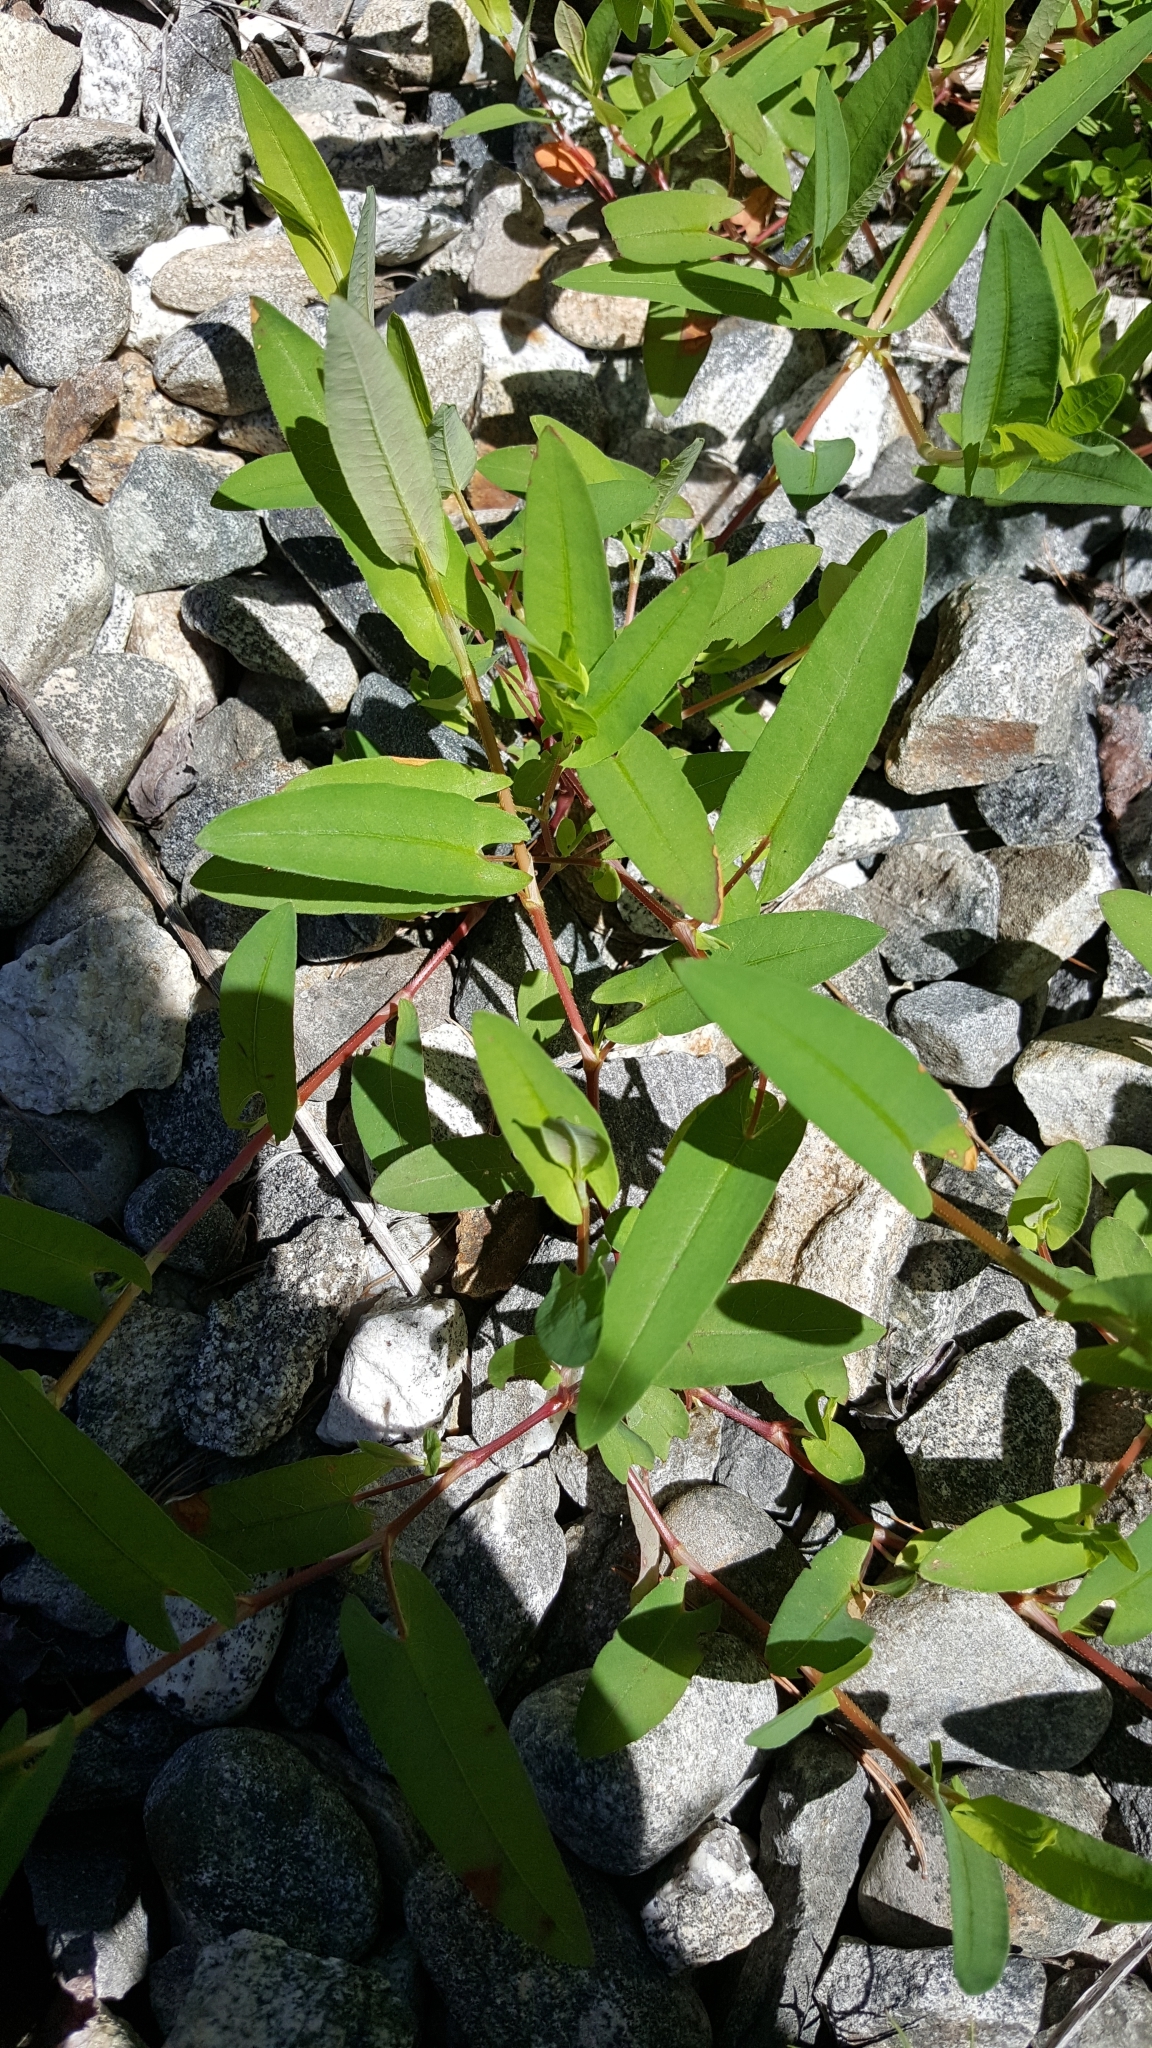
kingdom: Plantae
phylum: Tracheophyta
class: Magnoliopsida
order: Caryophyllales
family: Polygonaceae
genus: Persicaria
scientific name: Persicaria sagittata
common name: American tearthumb
